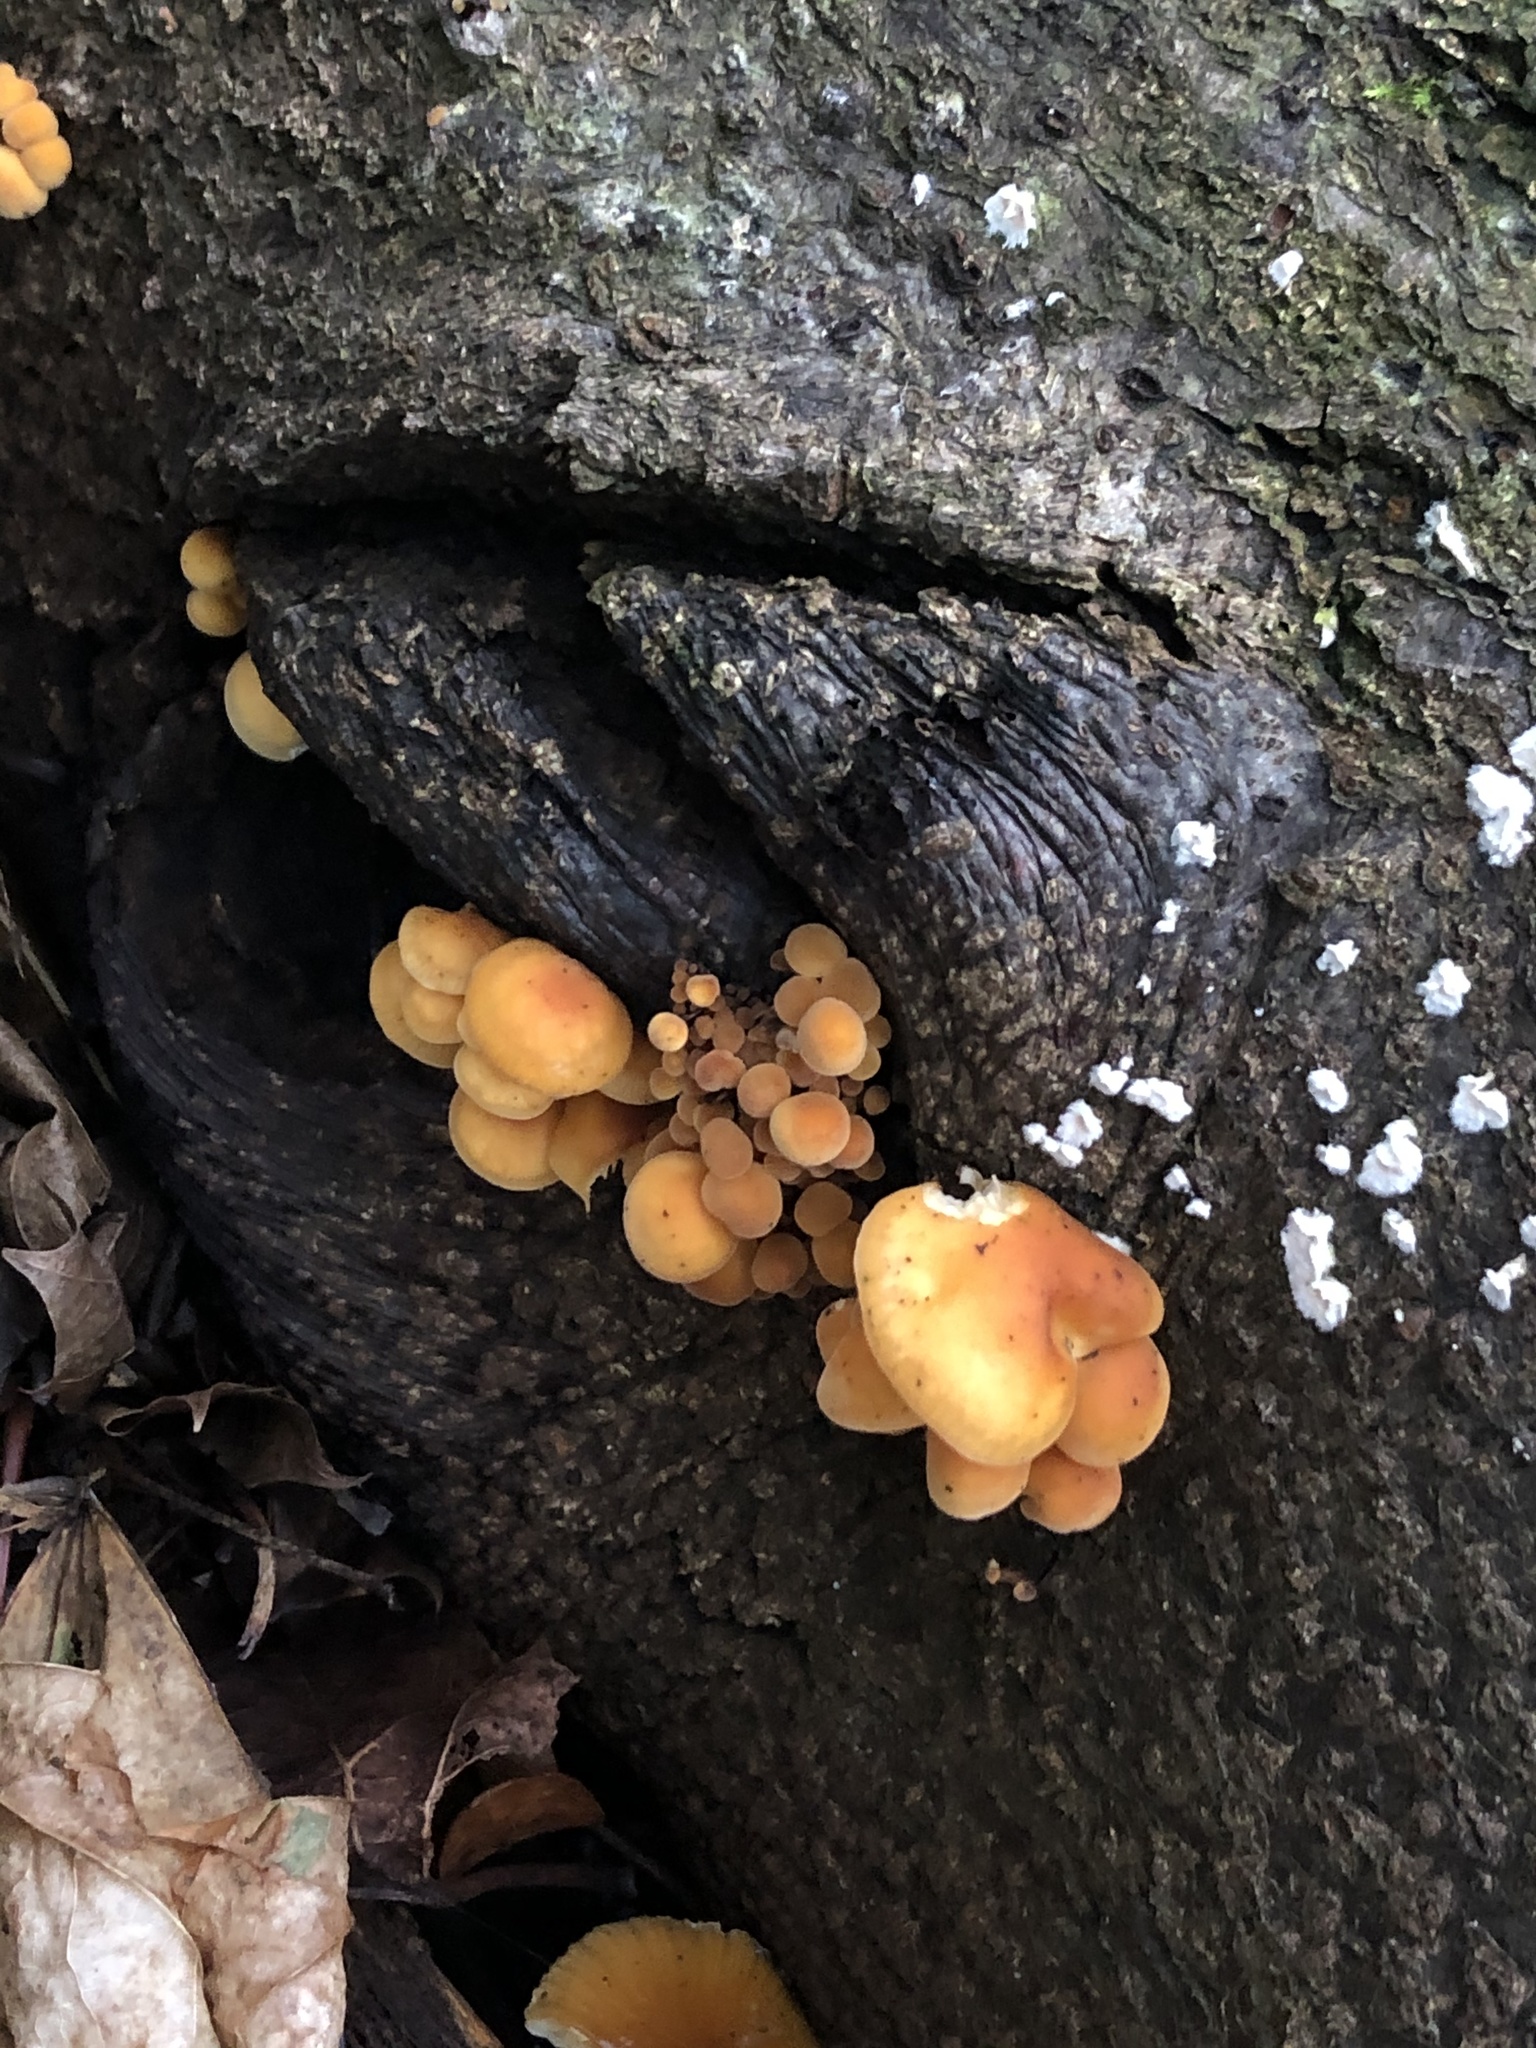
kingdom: Fungi
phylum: Basidiomycota
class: Agaricomycetes
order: Agaricales
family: Physalacriaceae
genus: Flammulina
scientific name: Flammulina
